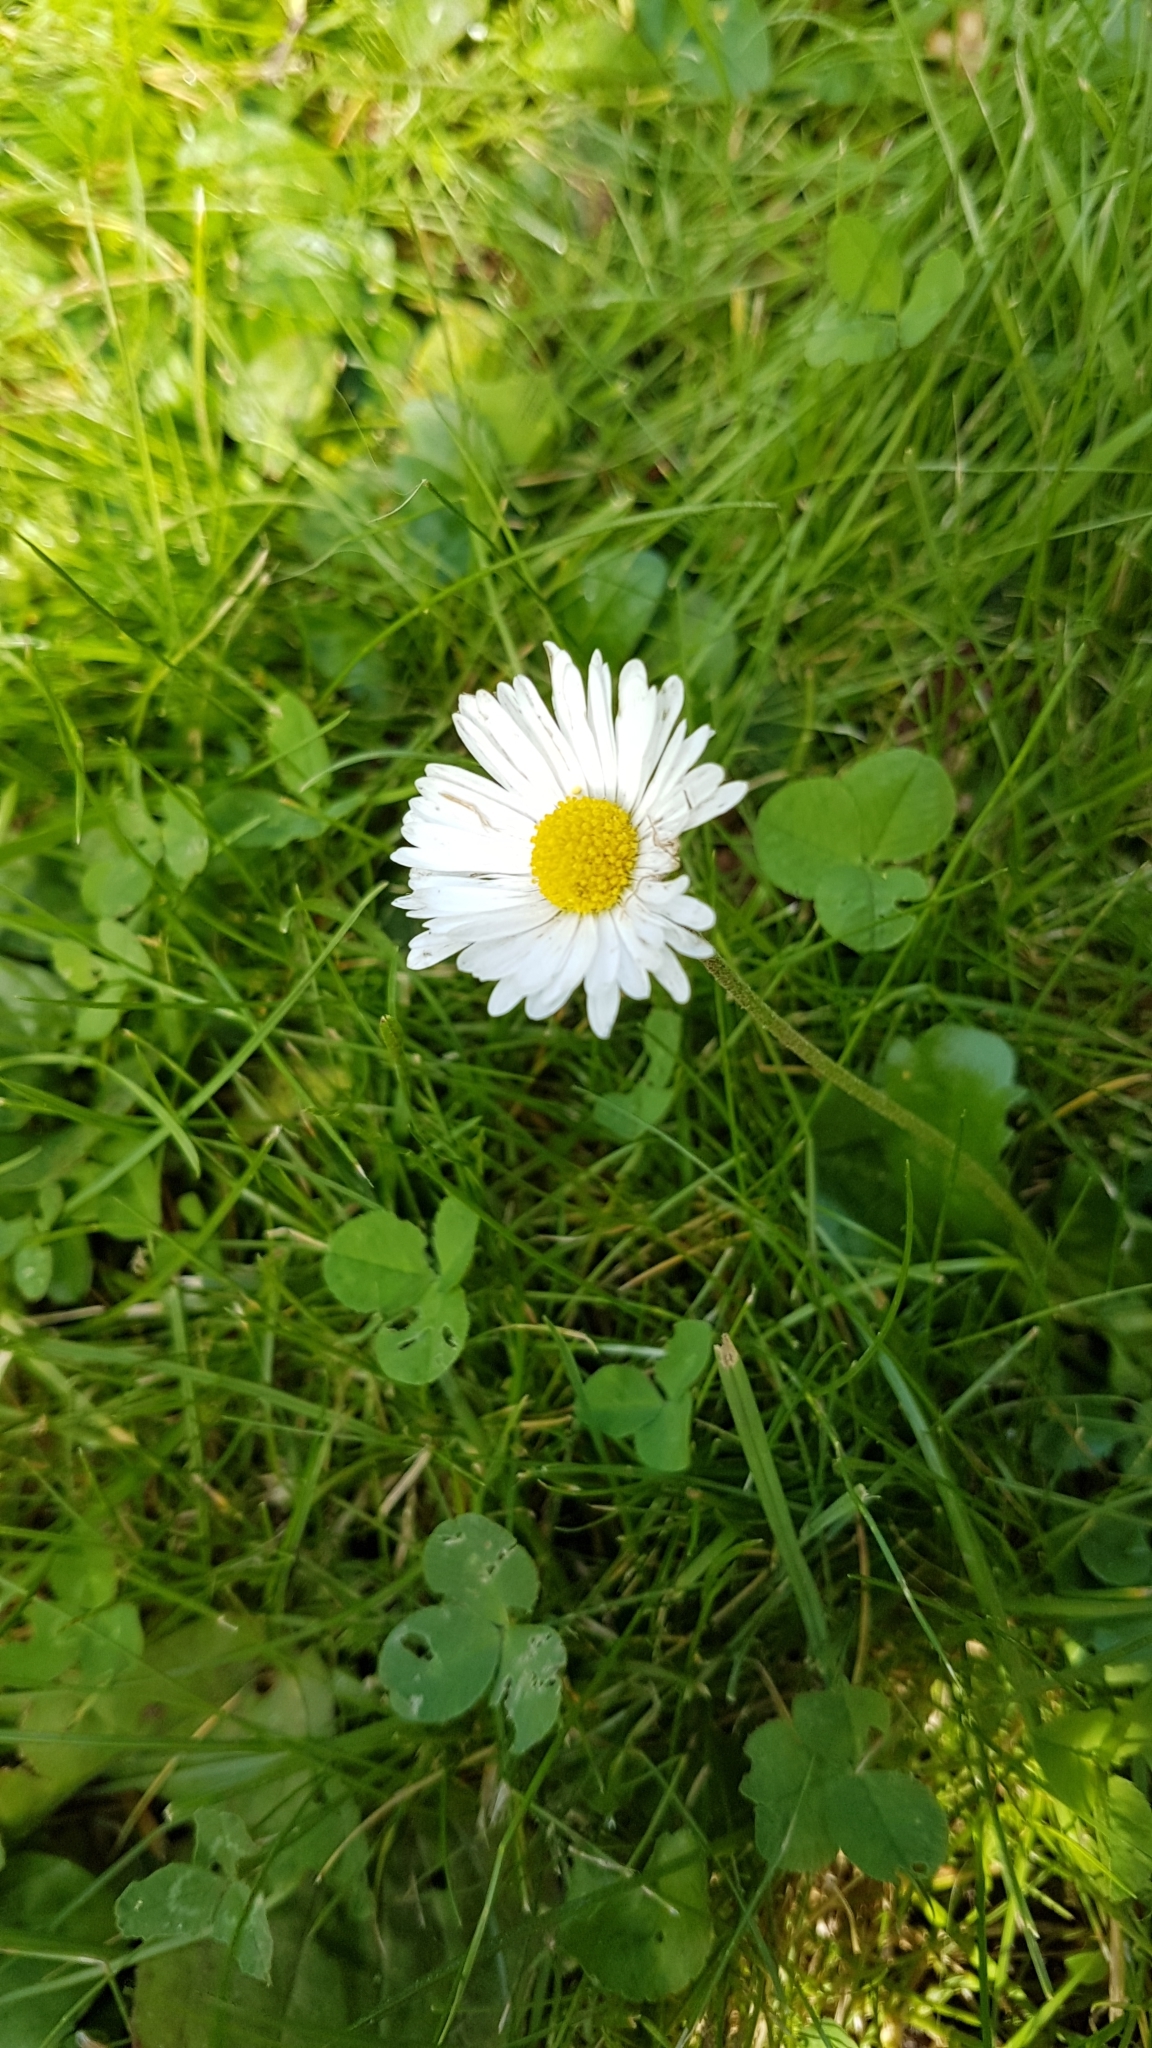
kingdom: Plantae
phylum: Tracheophyta
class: Magnoliopsida
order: Asterales
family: Asteraceae
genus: Bellis
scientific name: Bellis perennis
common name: Lawndaisy
